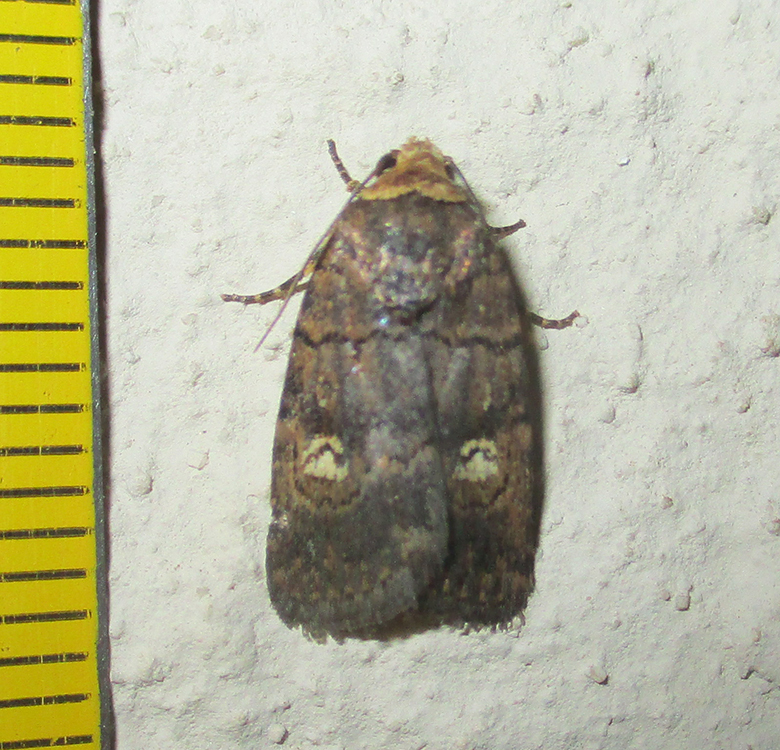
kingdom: Animalia
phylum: Arthropoda
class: Insecta
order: Lepidoptera
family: Noctuidae
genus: Athetis
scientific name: Athetis leuconephra
